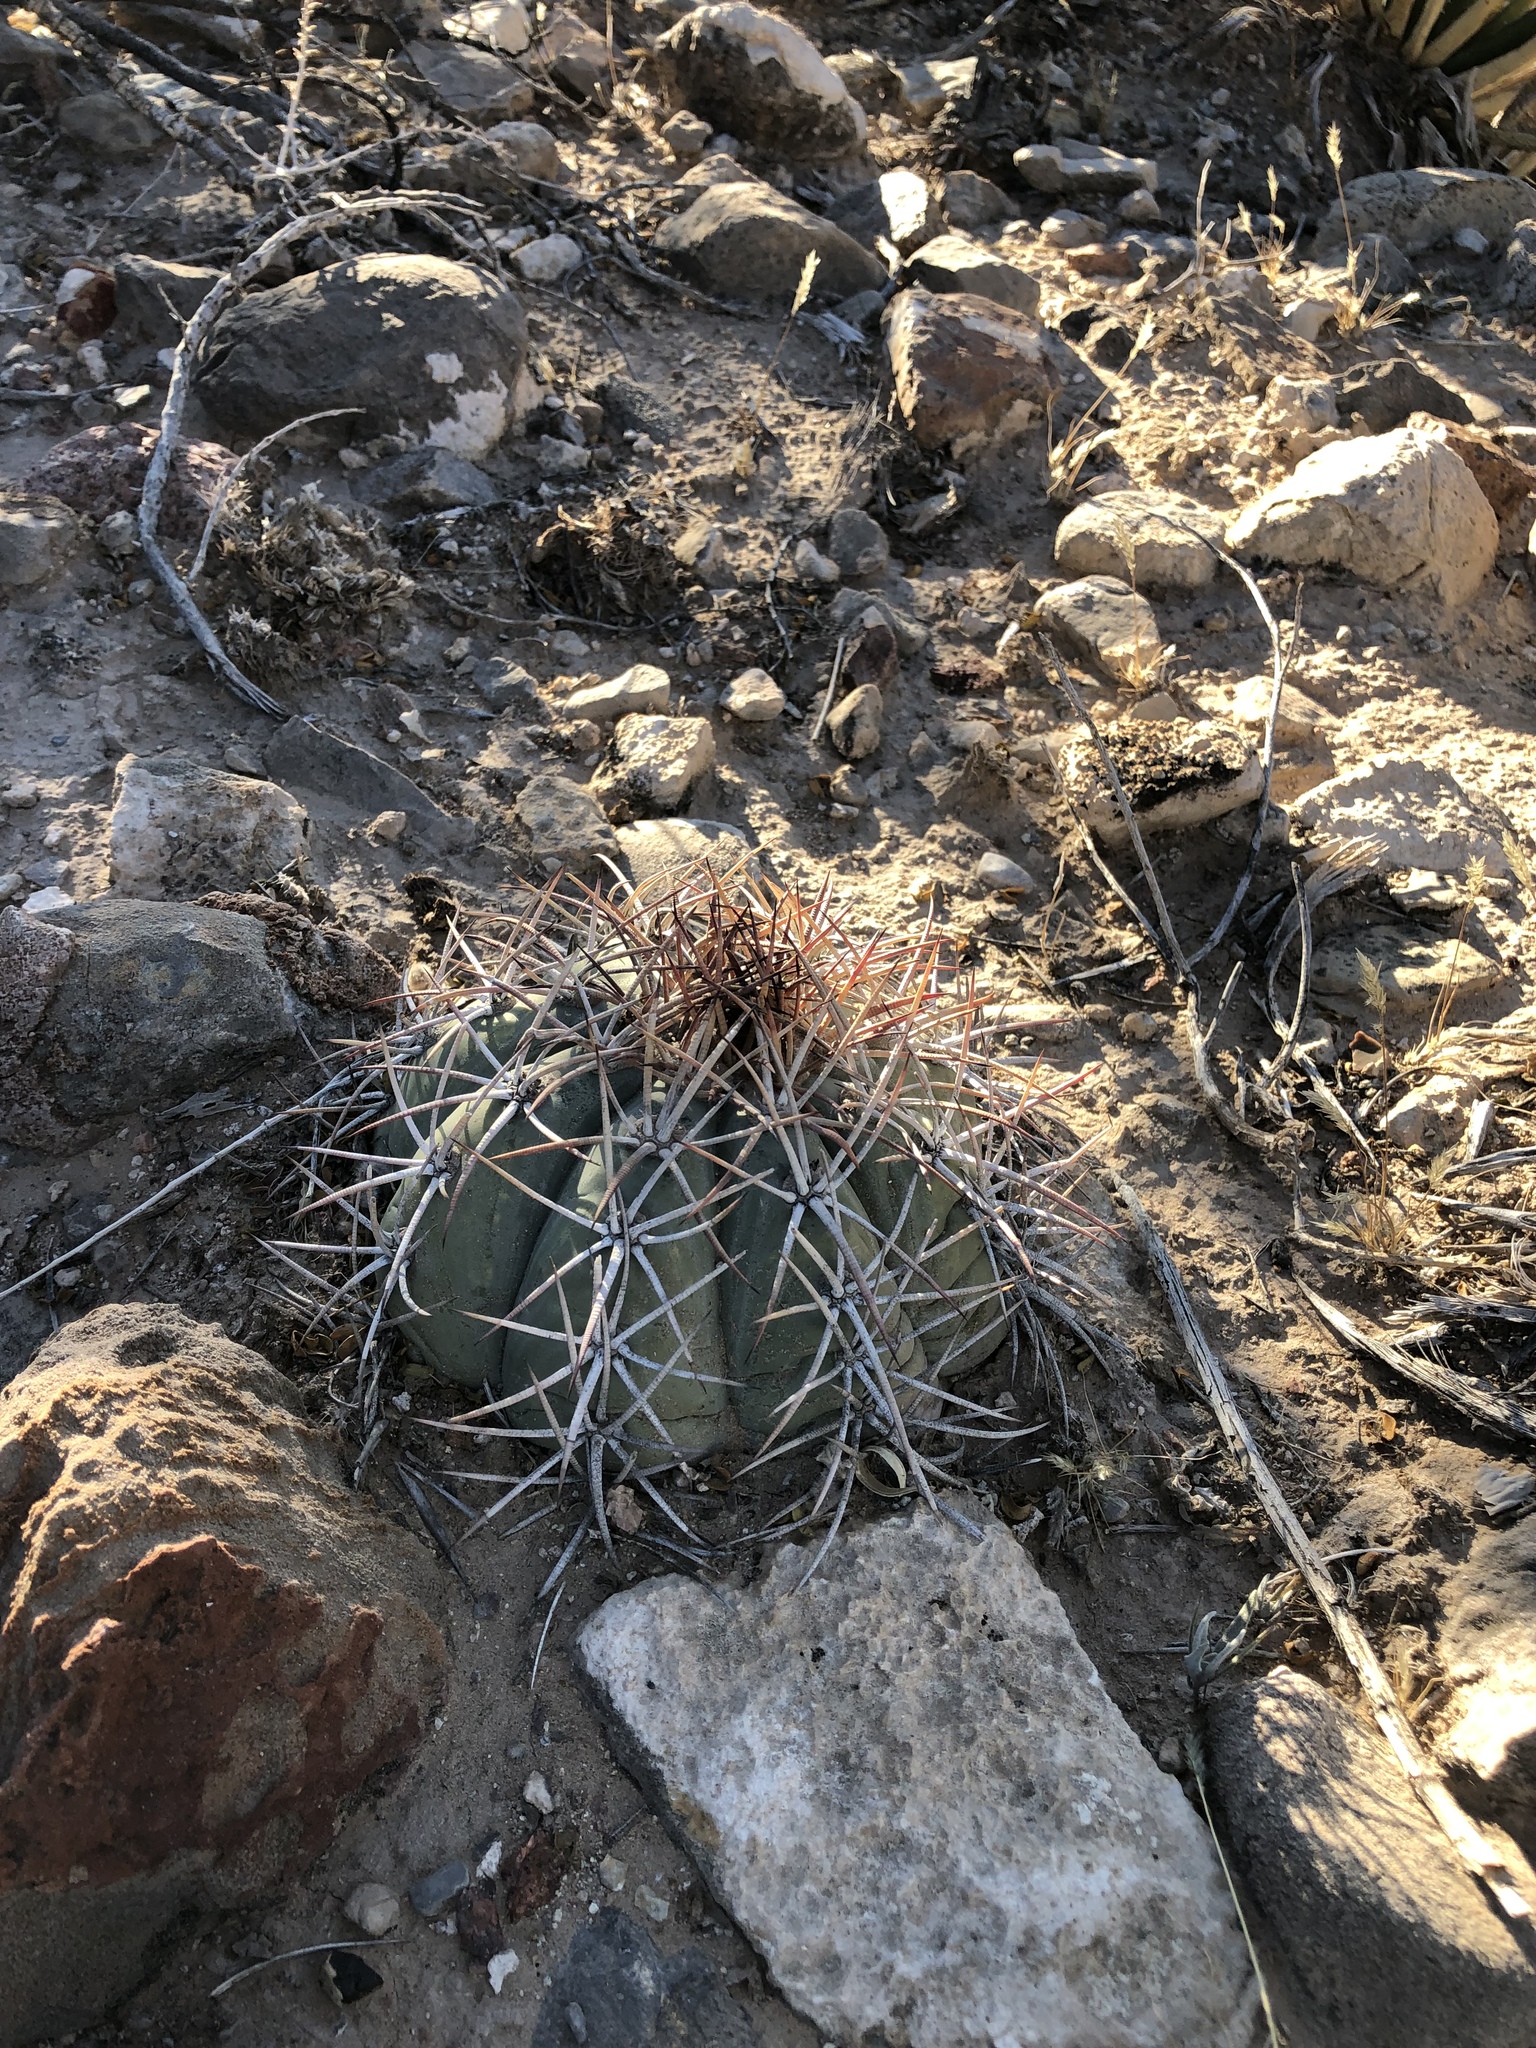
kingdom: Plantae
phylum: Tracheophyta
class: Magnoliopsida
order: Caryophyllales
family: Cactaceae
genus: Echinocactus
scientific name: Echinocactus horizonthalonius
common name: Devilshead
